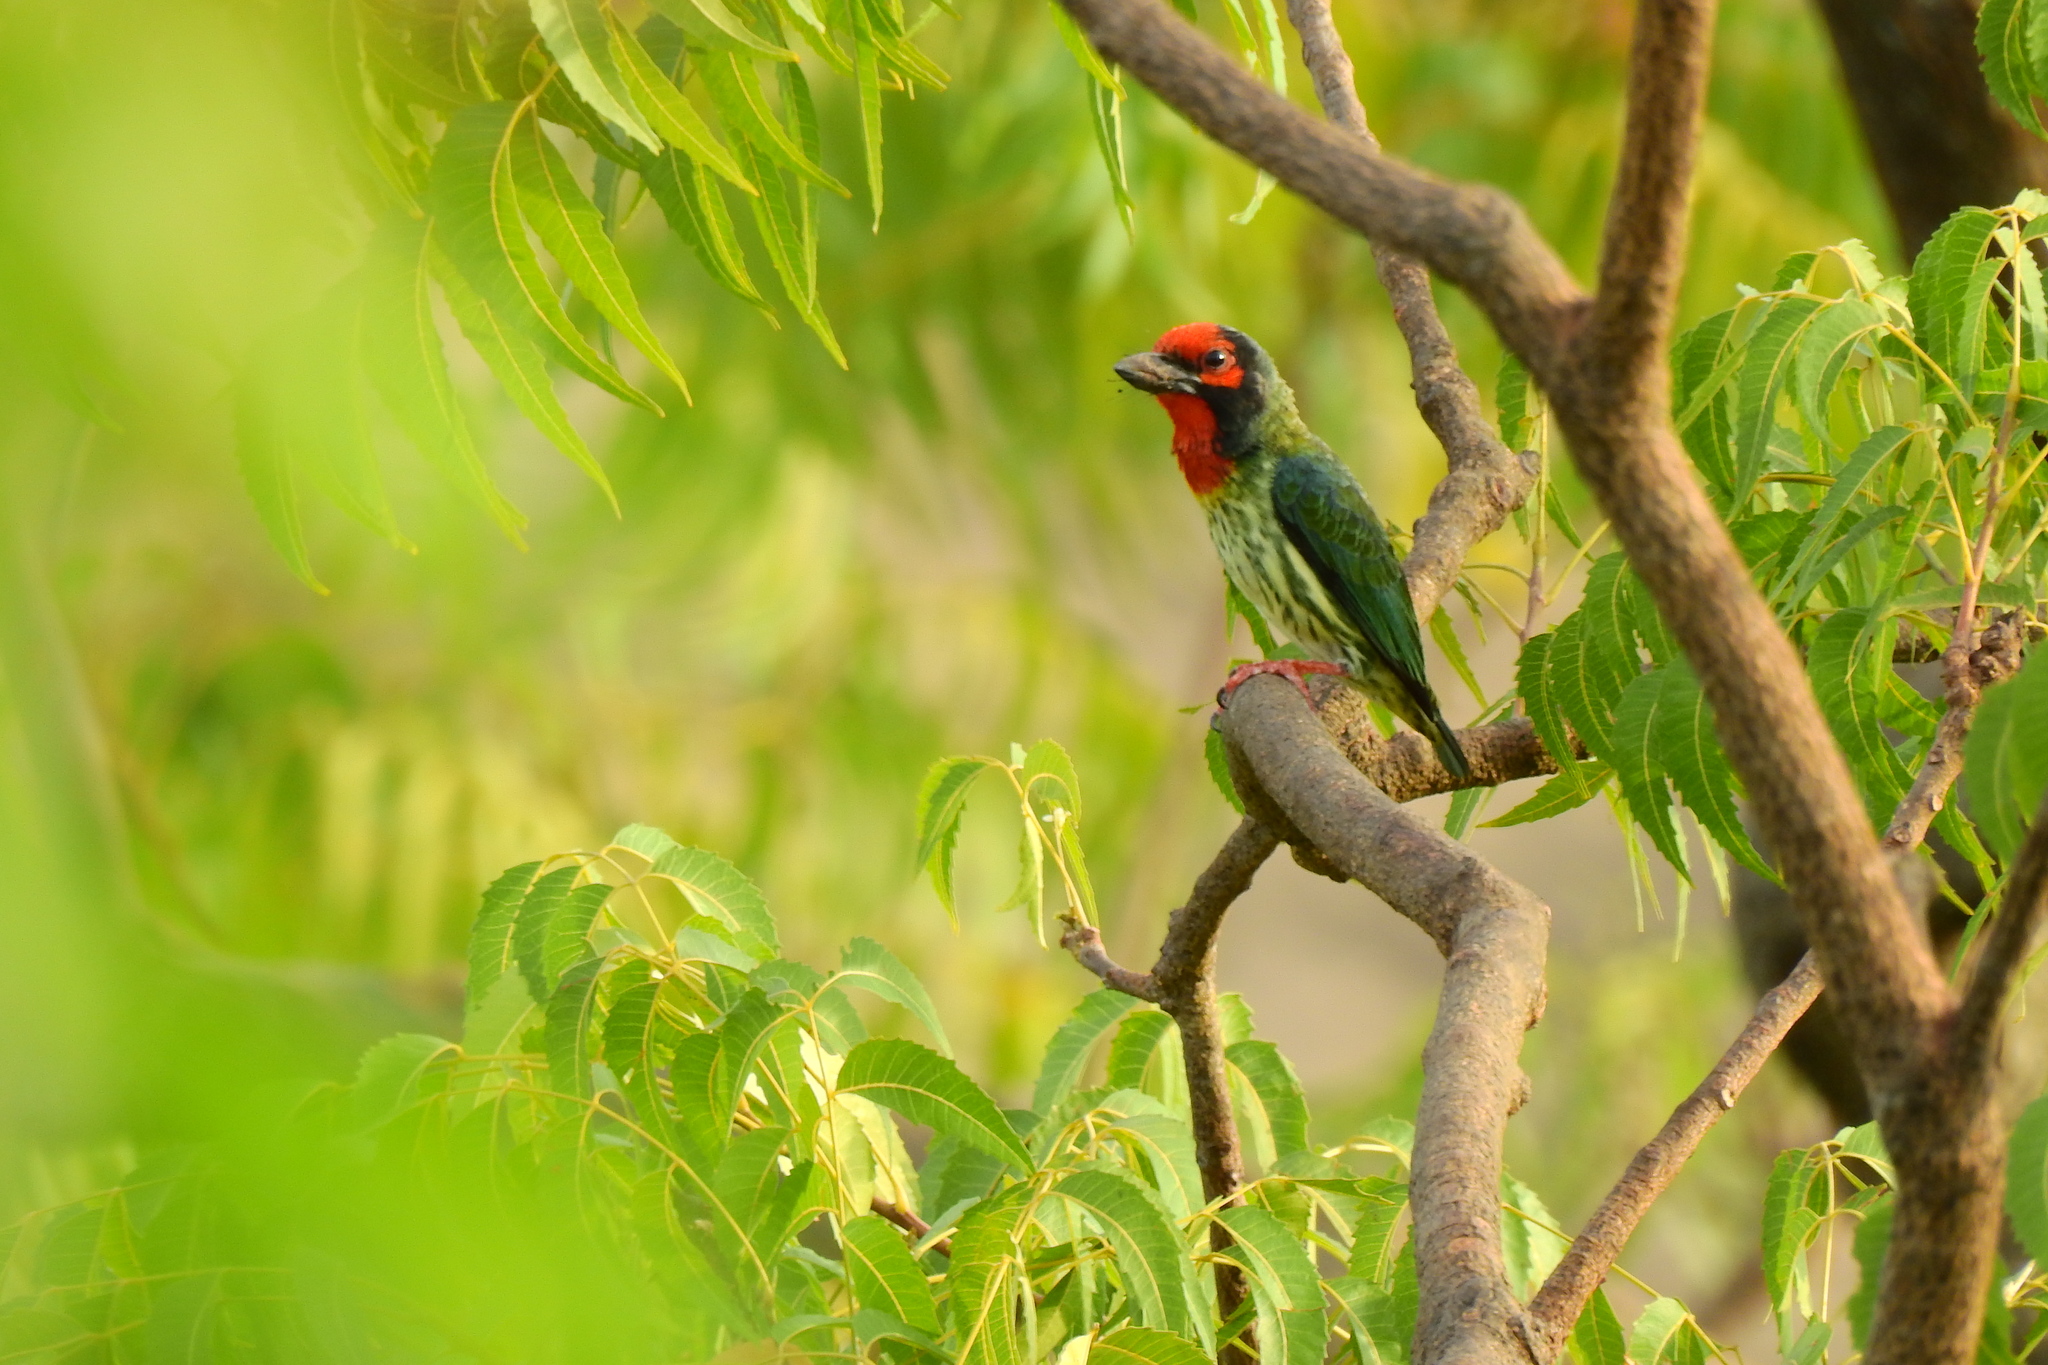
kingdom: Animalia
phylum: Chordata
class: Aves
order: Piciformes
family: Megalaimidae
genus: Psilopogon
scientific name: Psilopogon haemacephalus
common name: Coppersmith barbet
